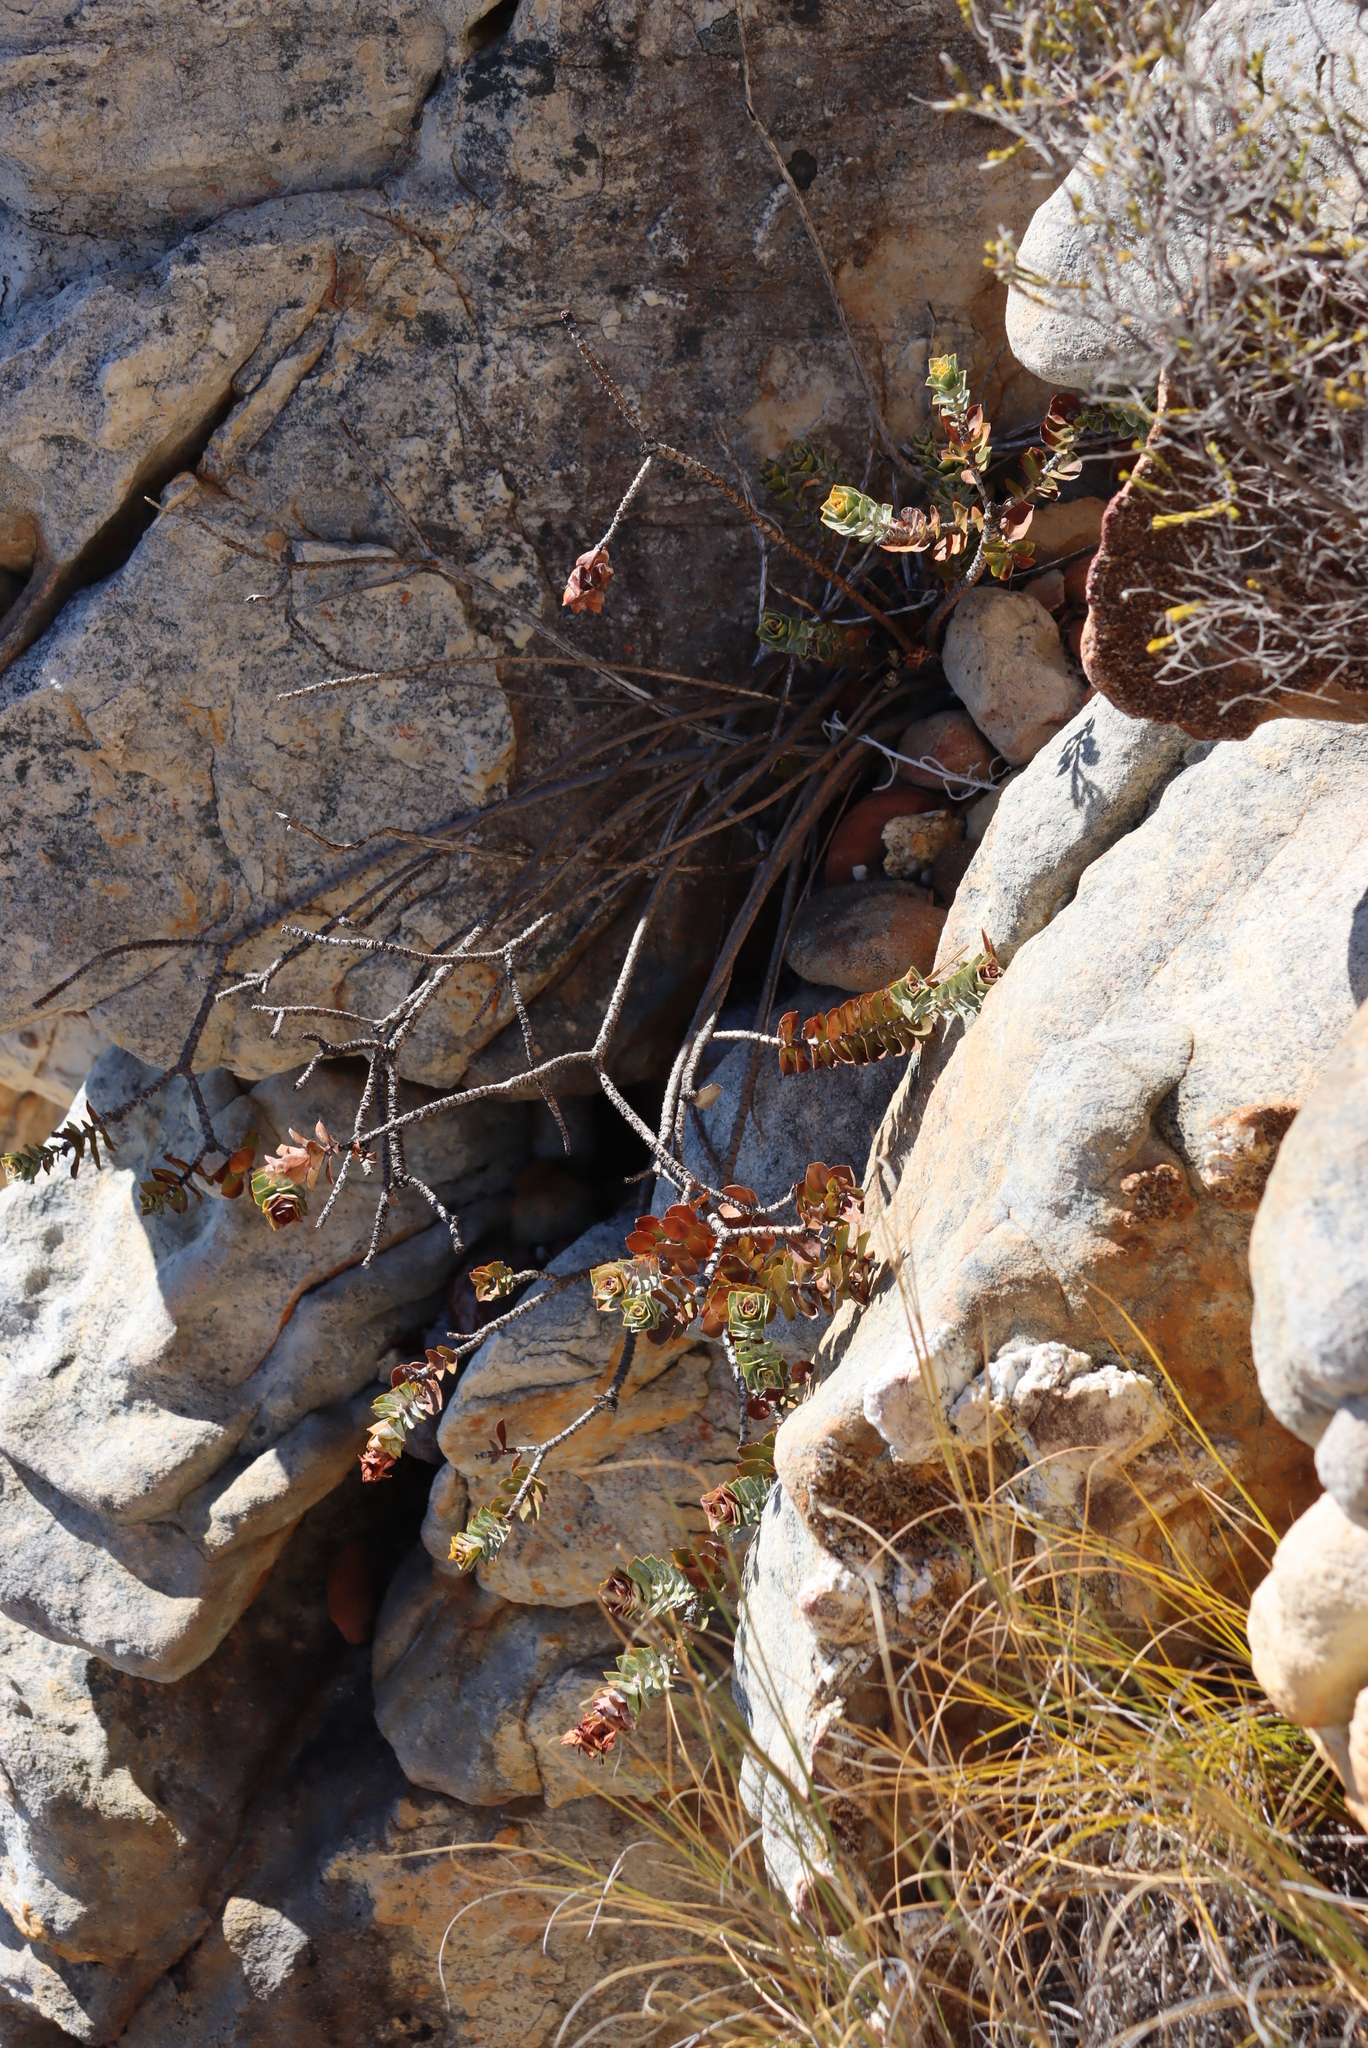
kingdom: Plantae
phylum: Tracheophyta
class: Magnoliopsida
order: Myrtales
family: Penaeaceae
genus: Saltera
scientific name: Saltera sarcocolla
